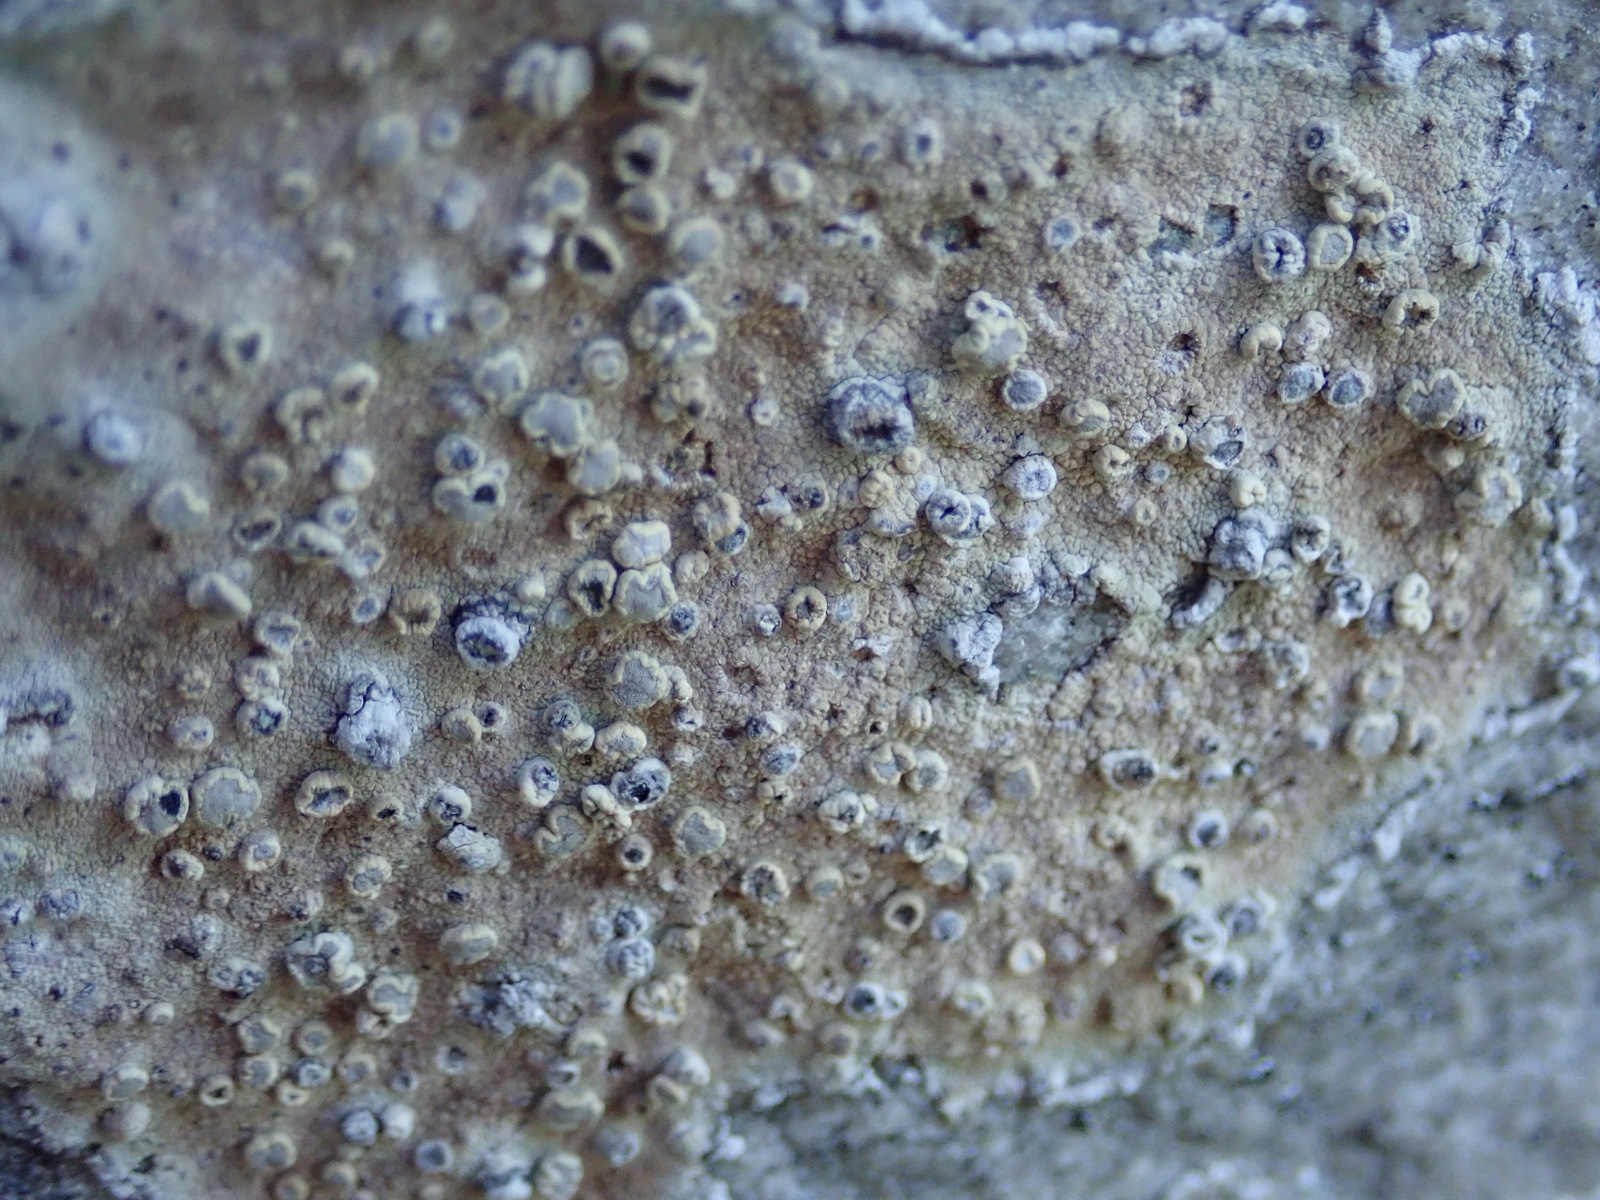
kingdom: Fungi
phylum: Ascomycota
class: Arthoniomycetes
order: Arthoniales
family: Roccellaceae
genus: Roccellina
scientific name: Roccellina capensis
